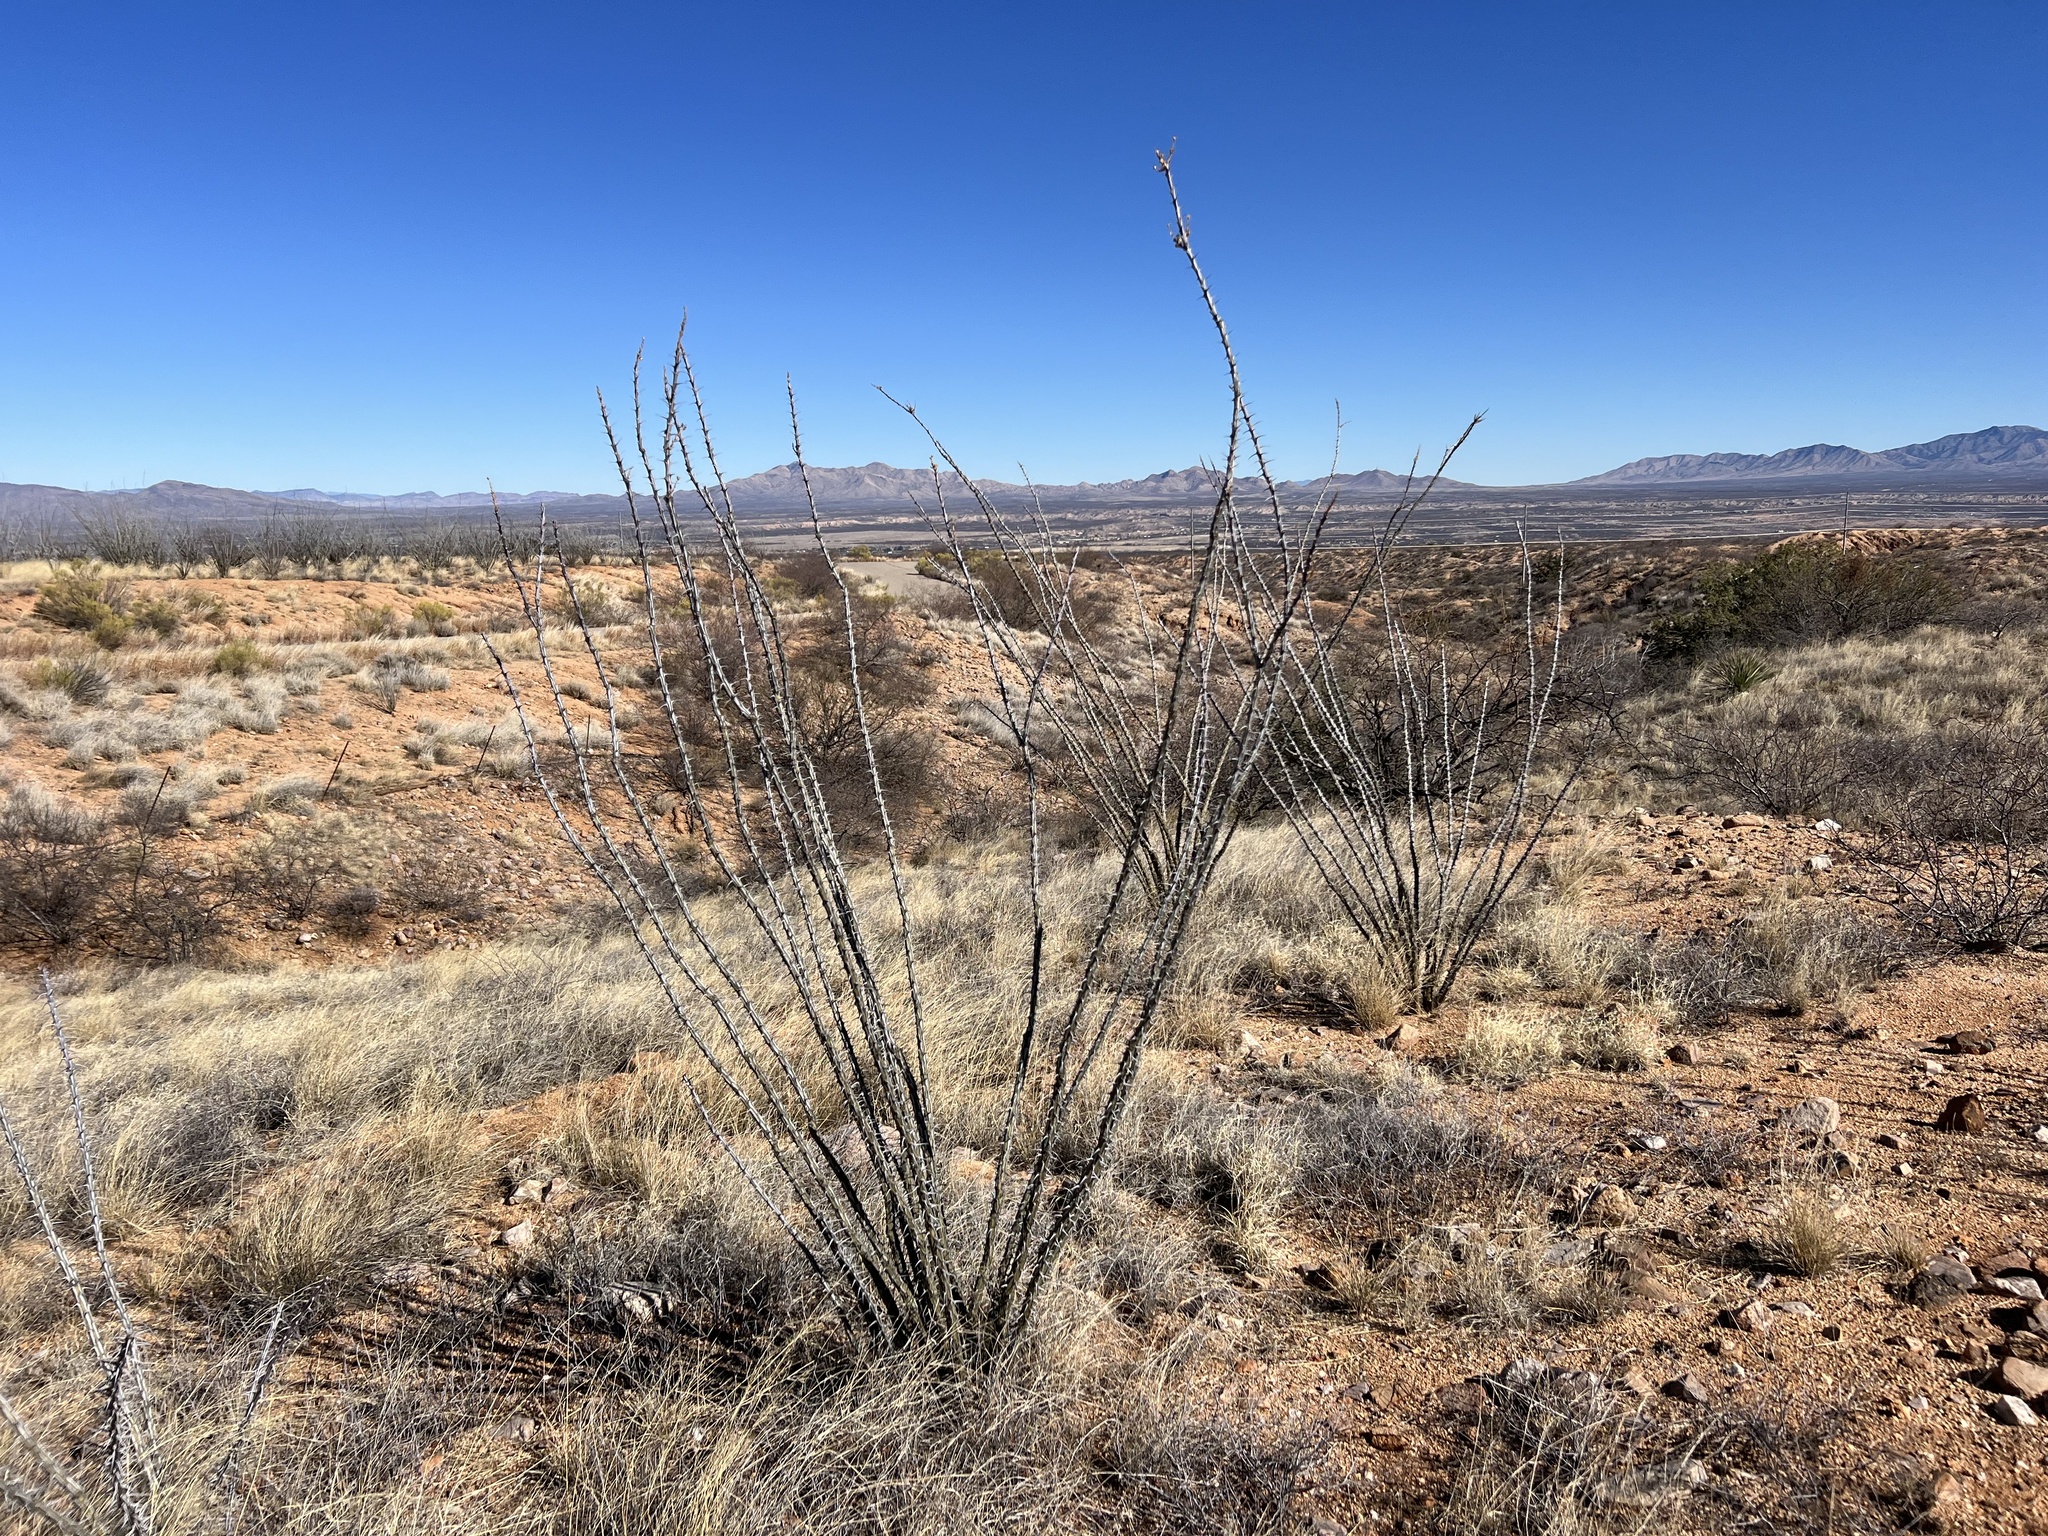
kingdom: Plantae
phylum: Tracheophyta
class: Magnoliopsida
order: Ericales
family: Fouquieriaceae
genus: Fouquieria
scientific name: Fouquieria splendens
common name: Vine-cactus
